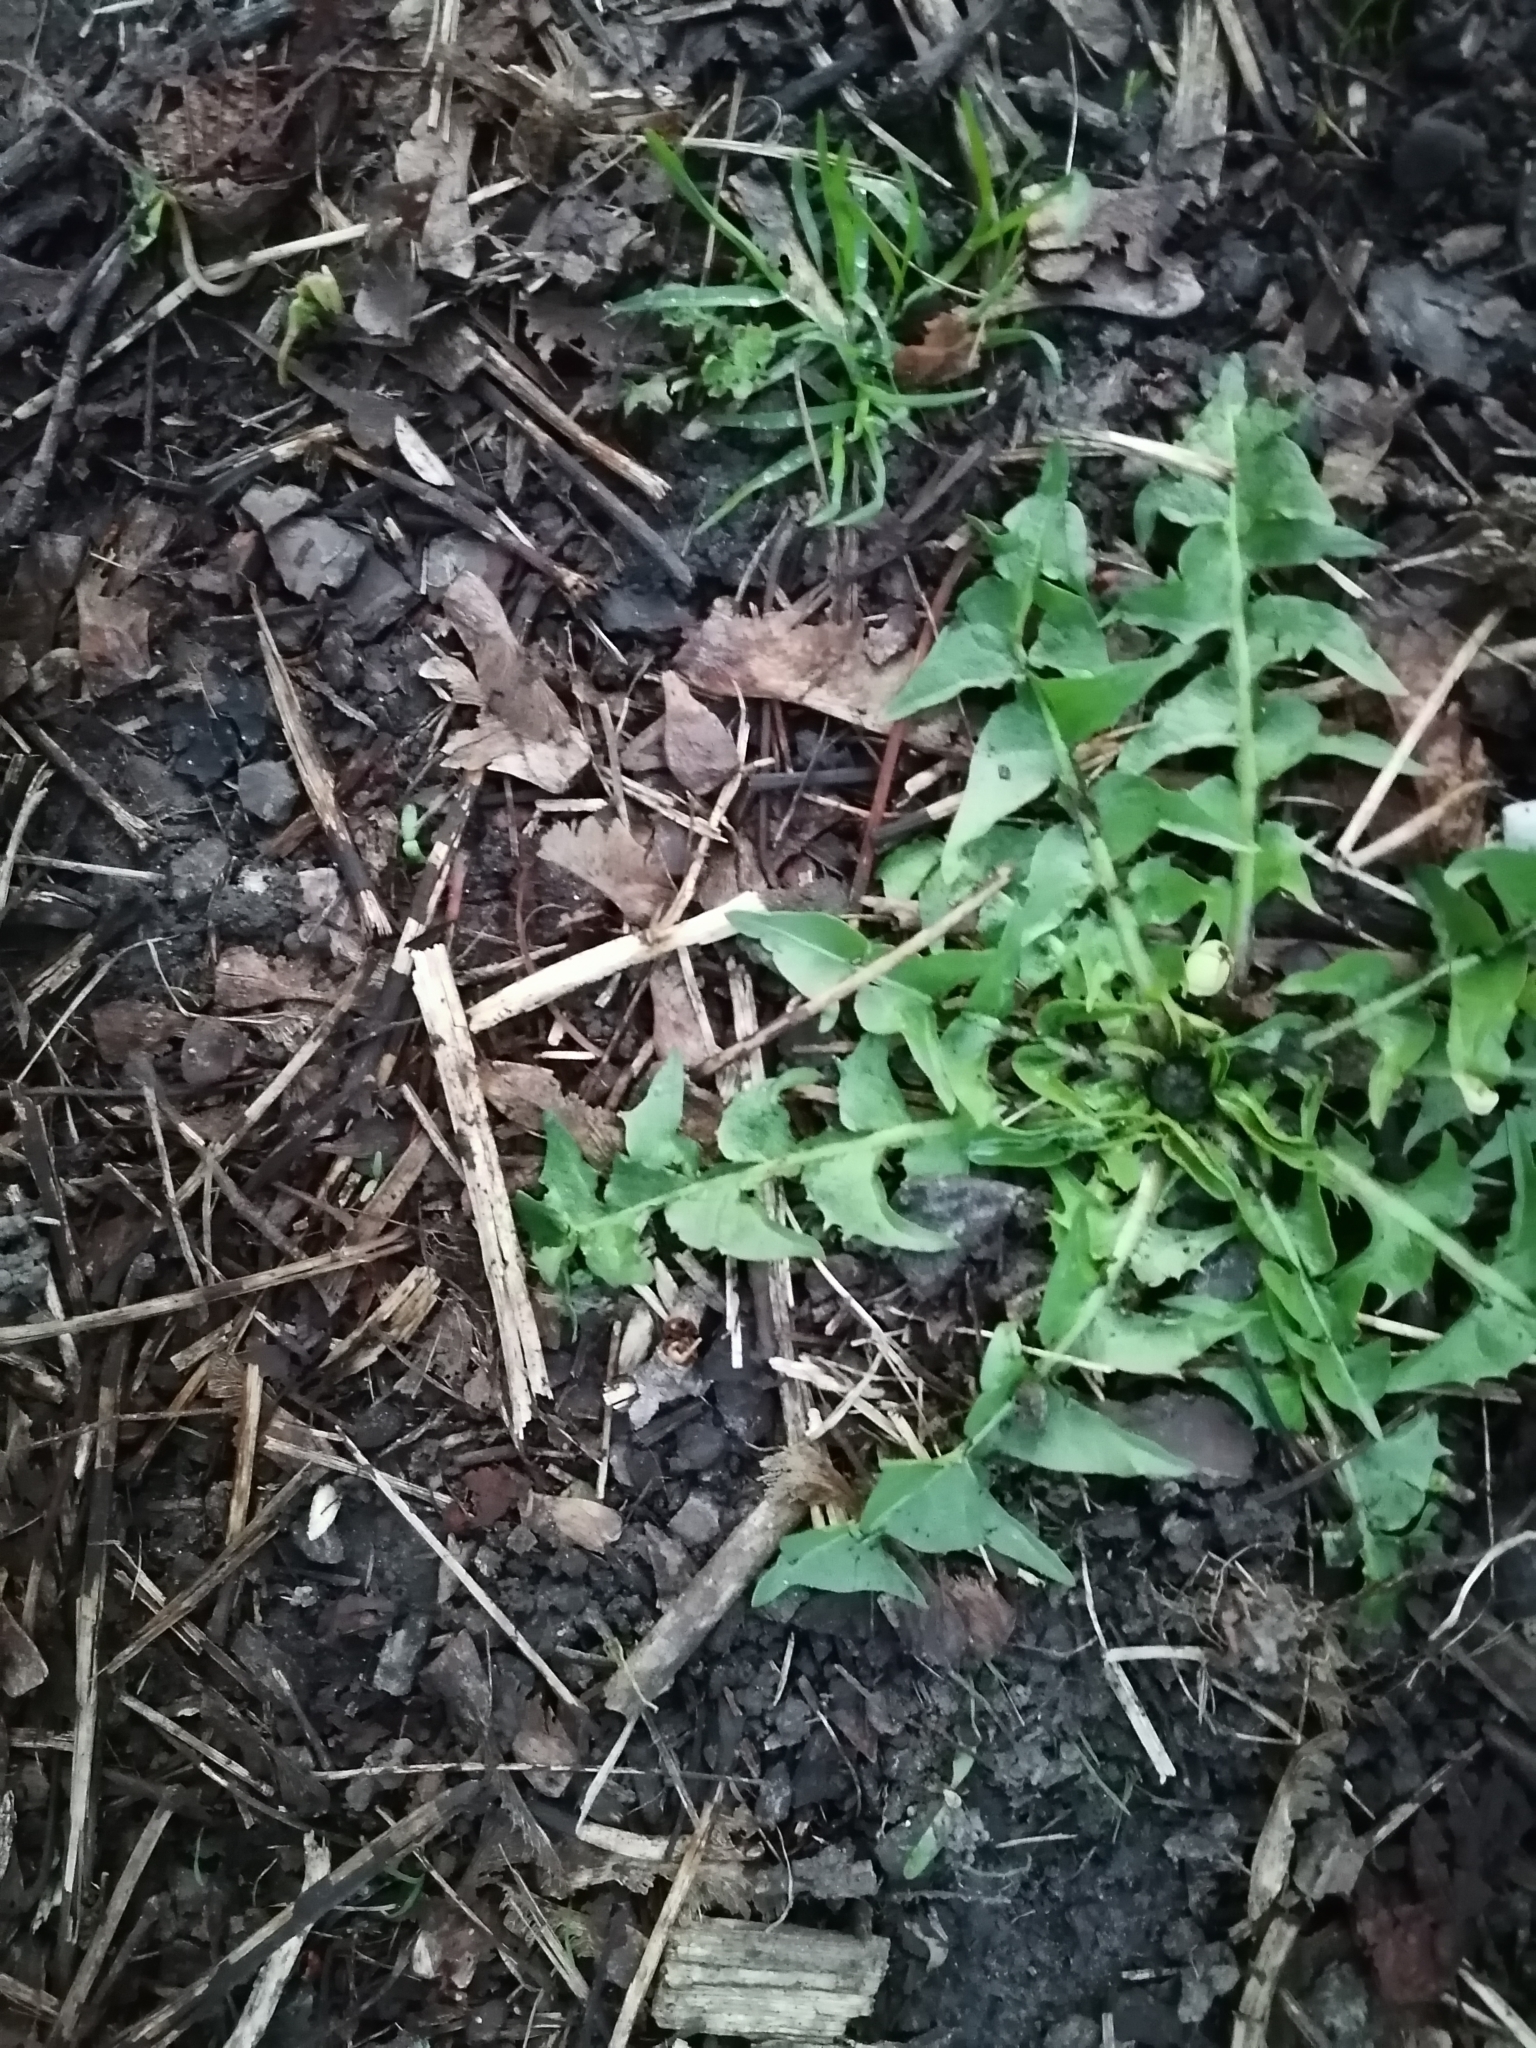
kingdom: Plantae
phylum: Tracheophyta
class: Magnoliopsida
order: Asterales
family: Asteraceae
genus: Taraxacum
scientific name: Taraxacum officinale
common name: Common dandelion
